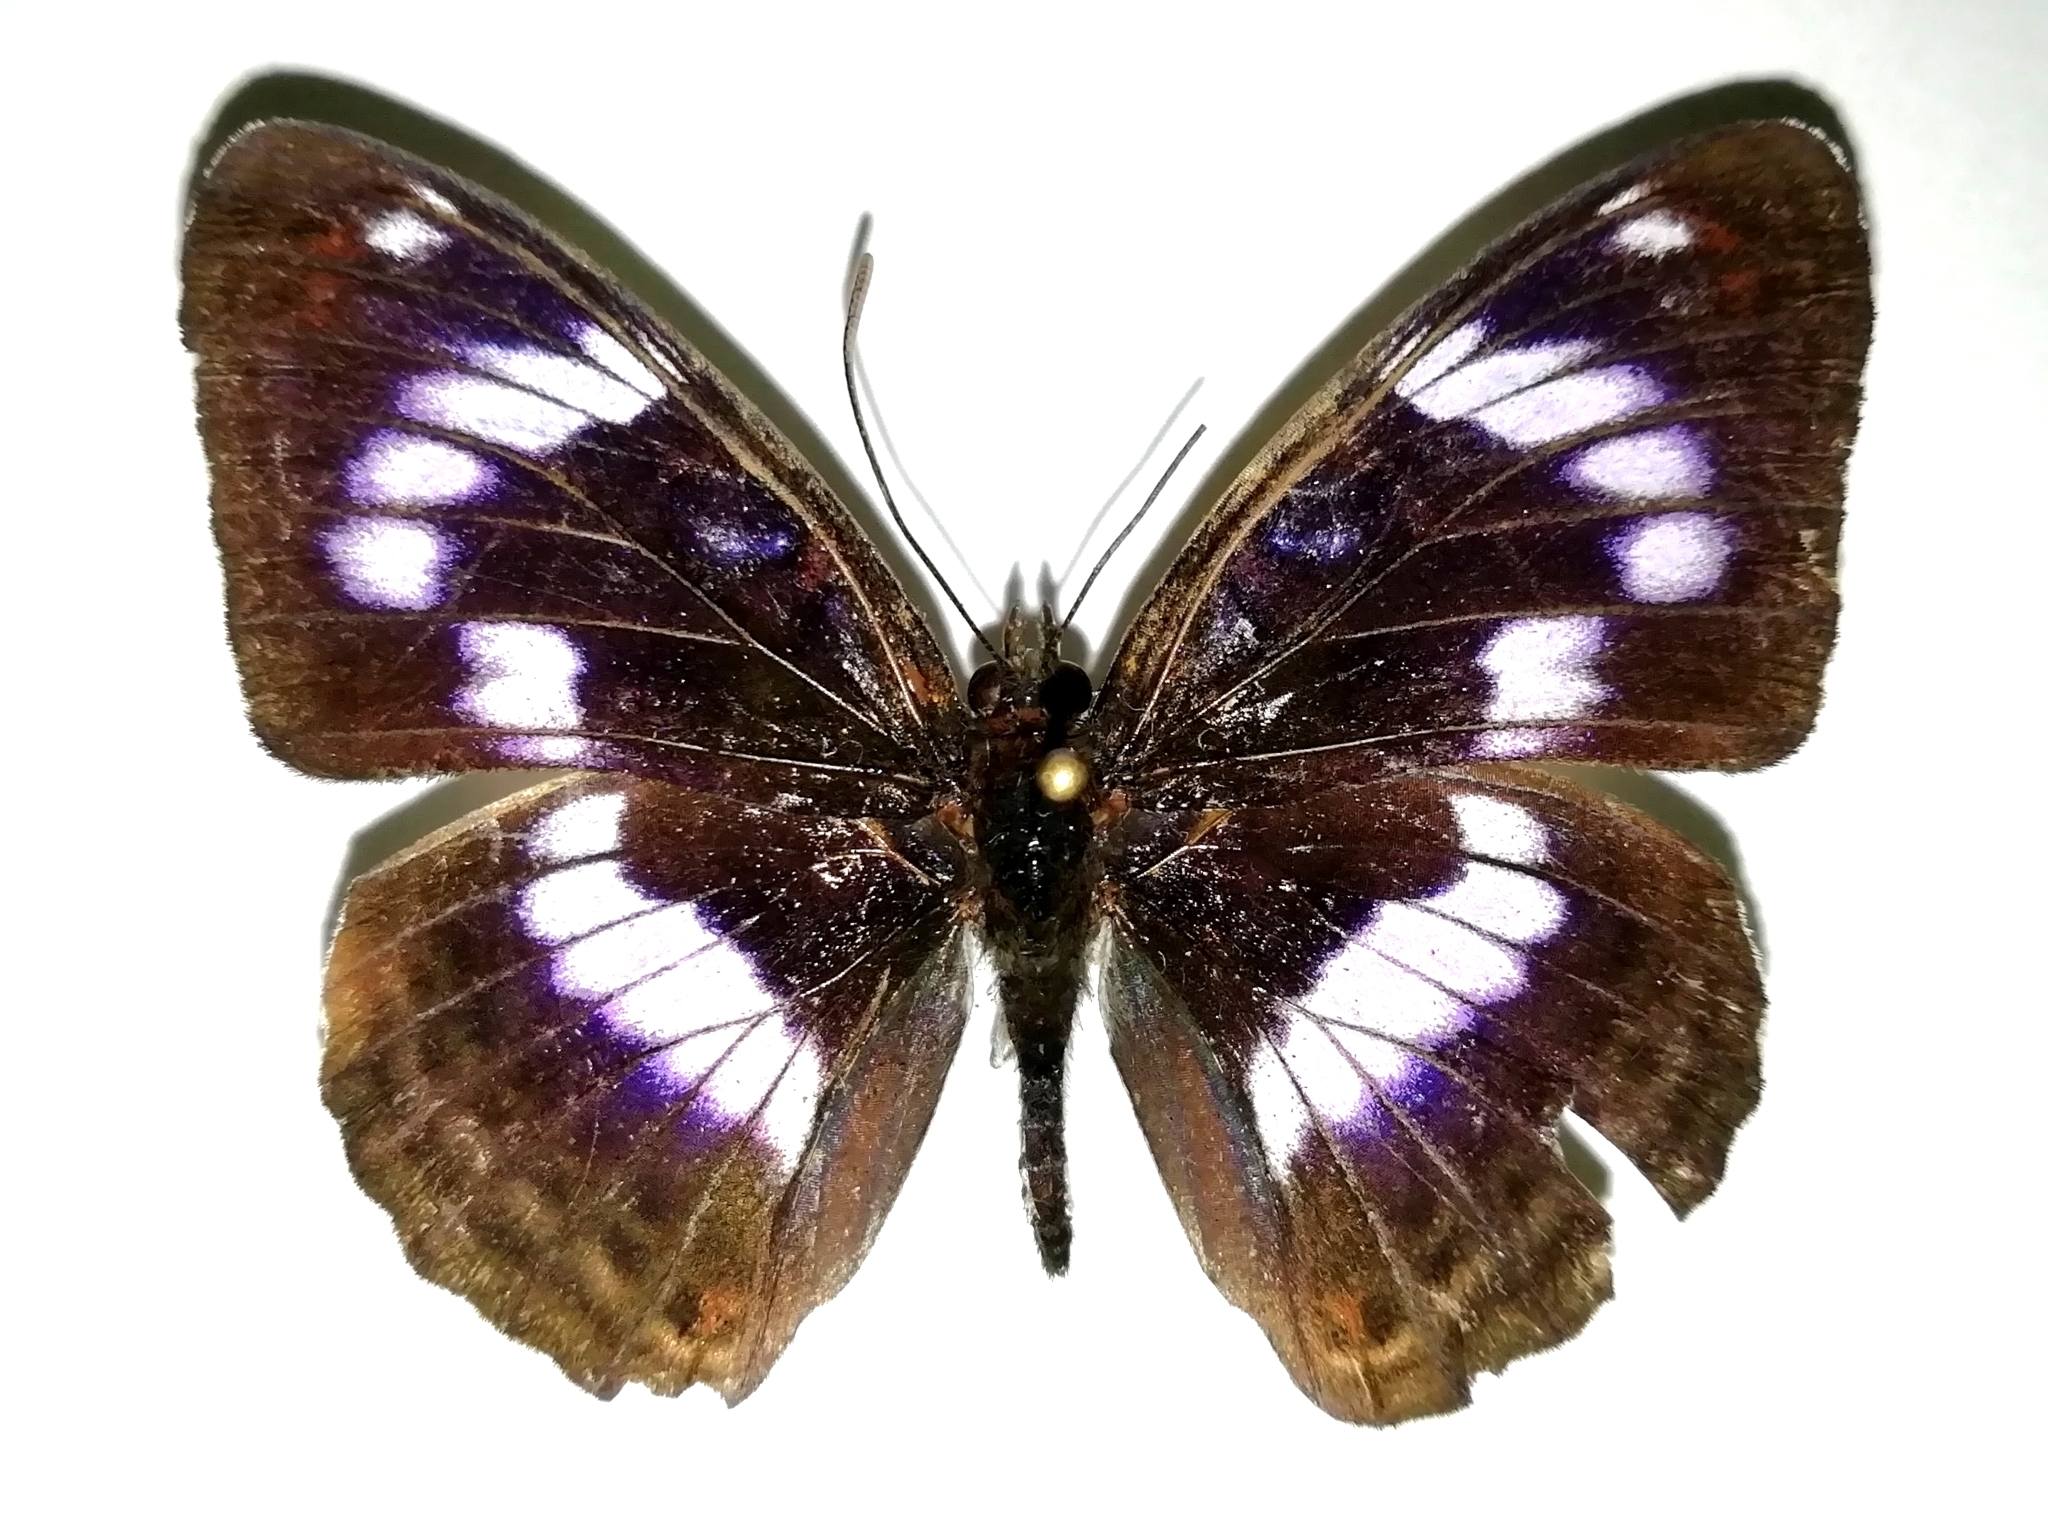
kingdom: Animalia
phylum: Arthropoda
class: Insecta
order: Lepidoptera
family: Nymphalidae
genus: Limenitis
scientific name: Limenitis sydyi
